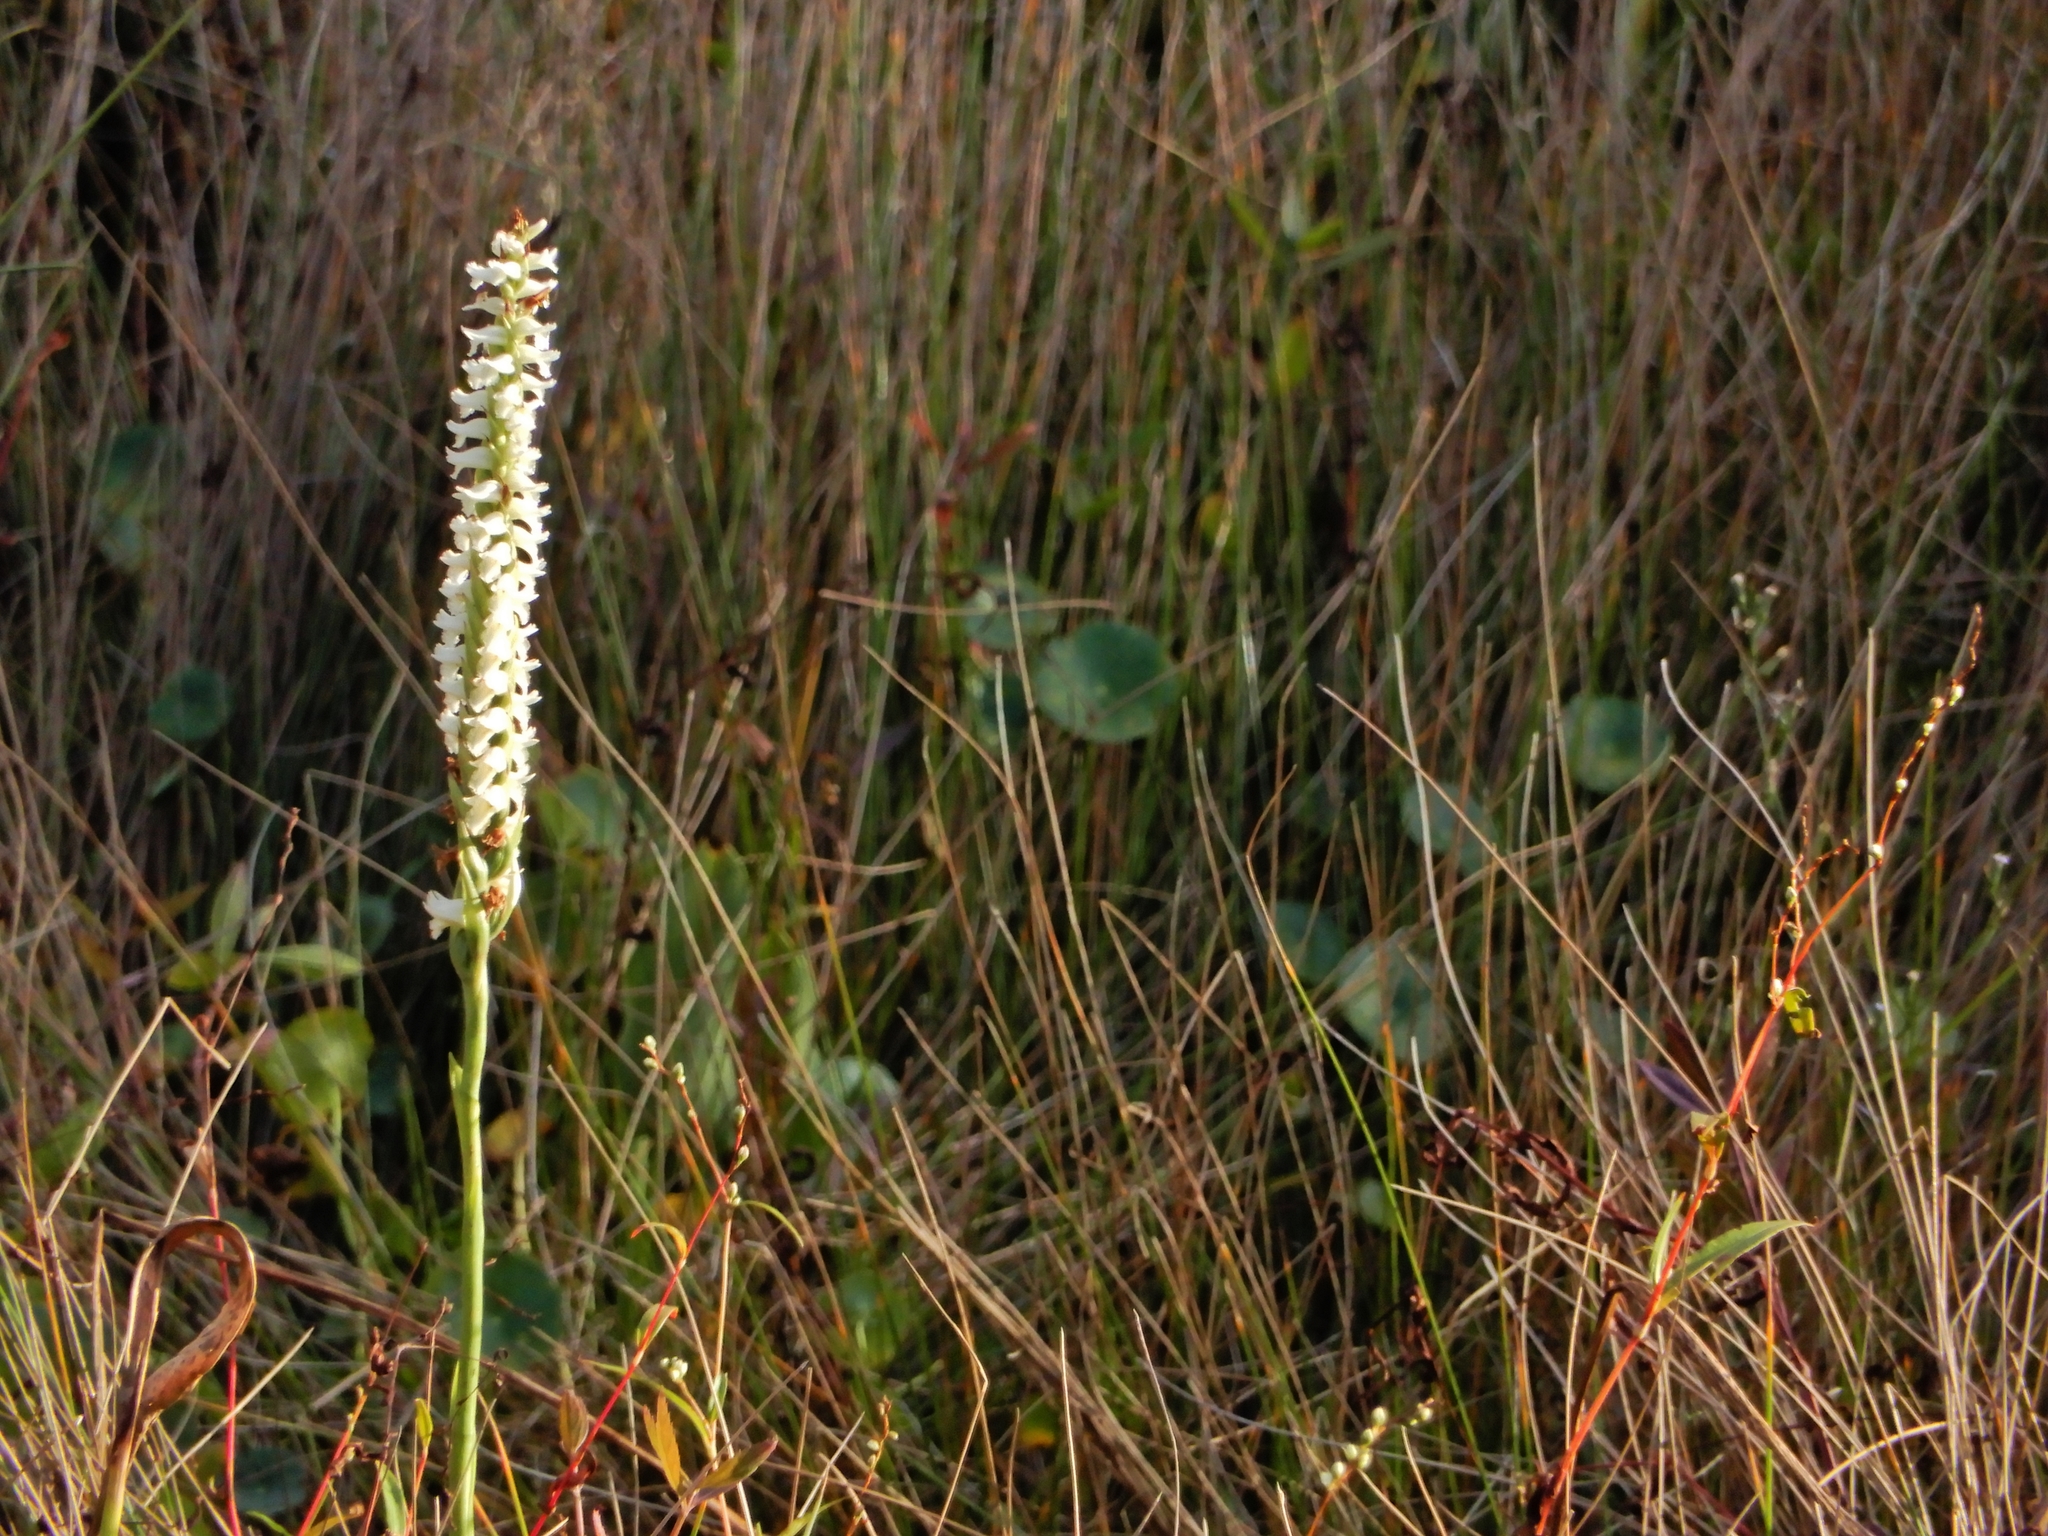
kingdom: Plantae
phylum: Tracheophyta
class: Liliopsida
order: Asparagales
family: Orchidaceae
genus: Spiranthes
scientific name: Spiranthes odorata
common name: Marsh ladies'-tresses
